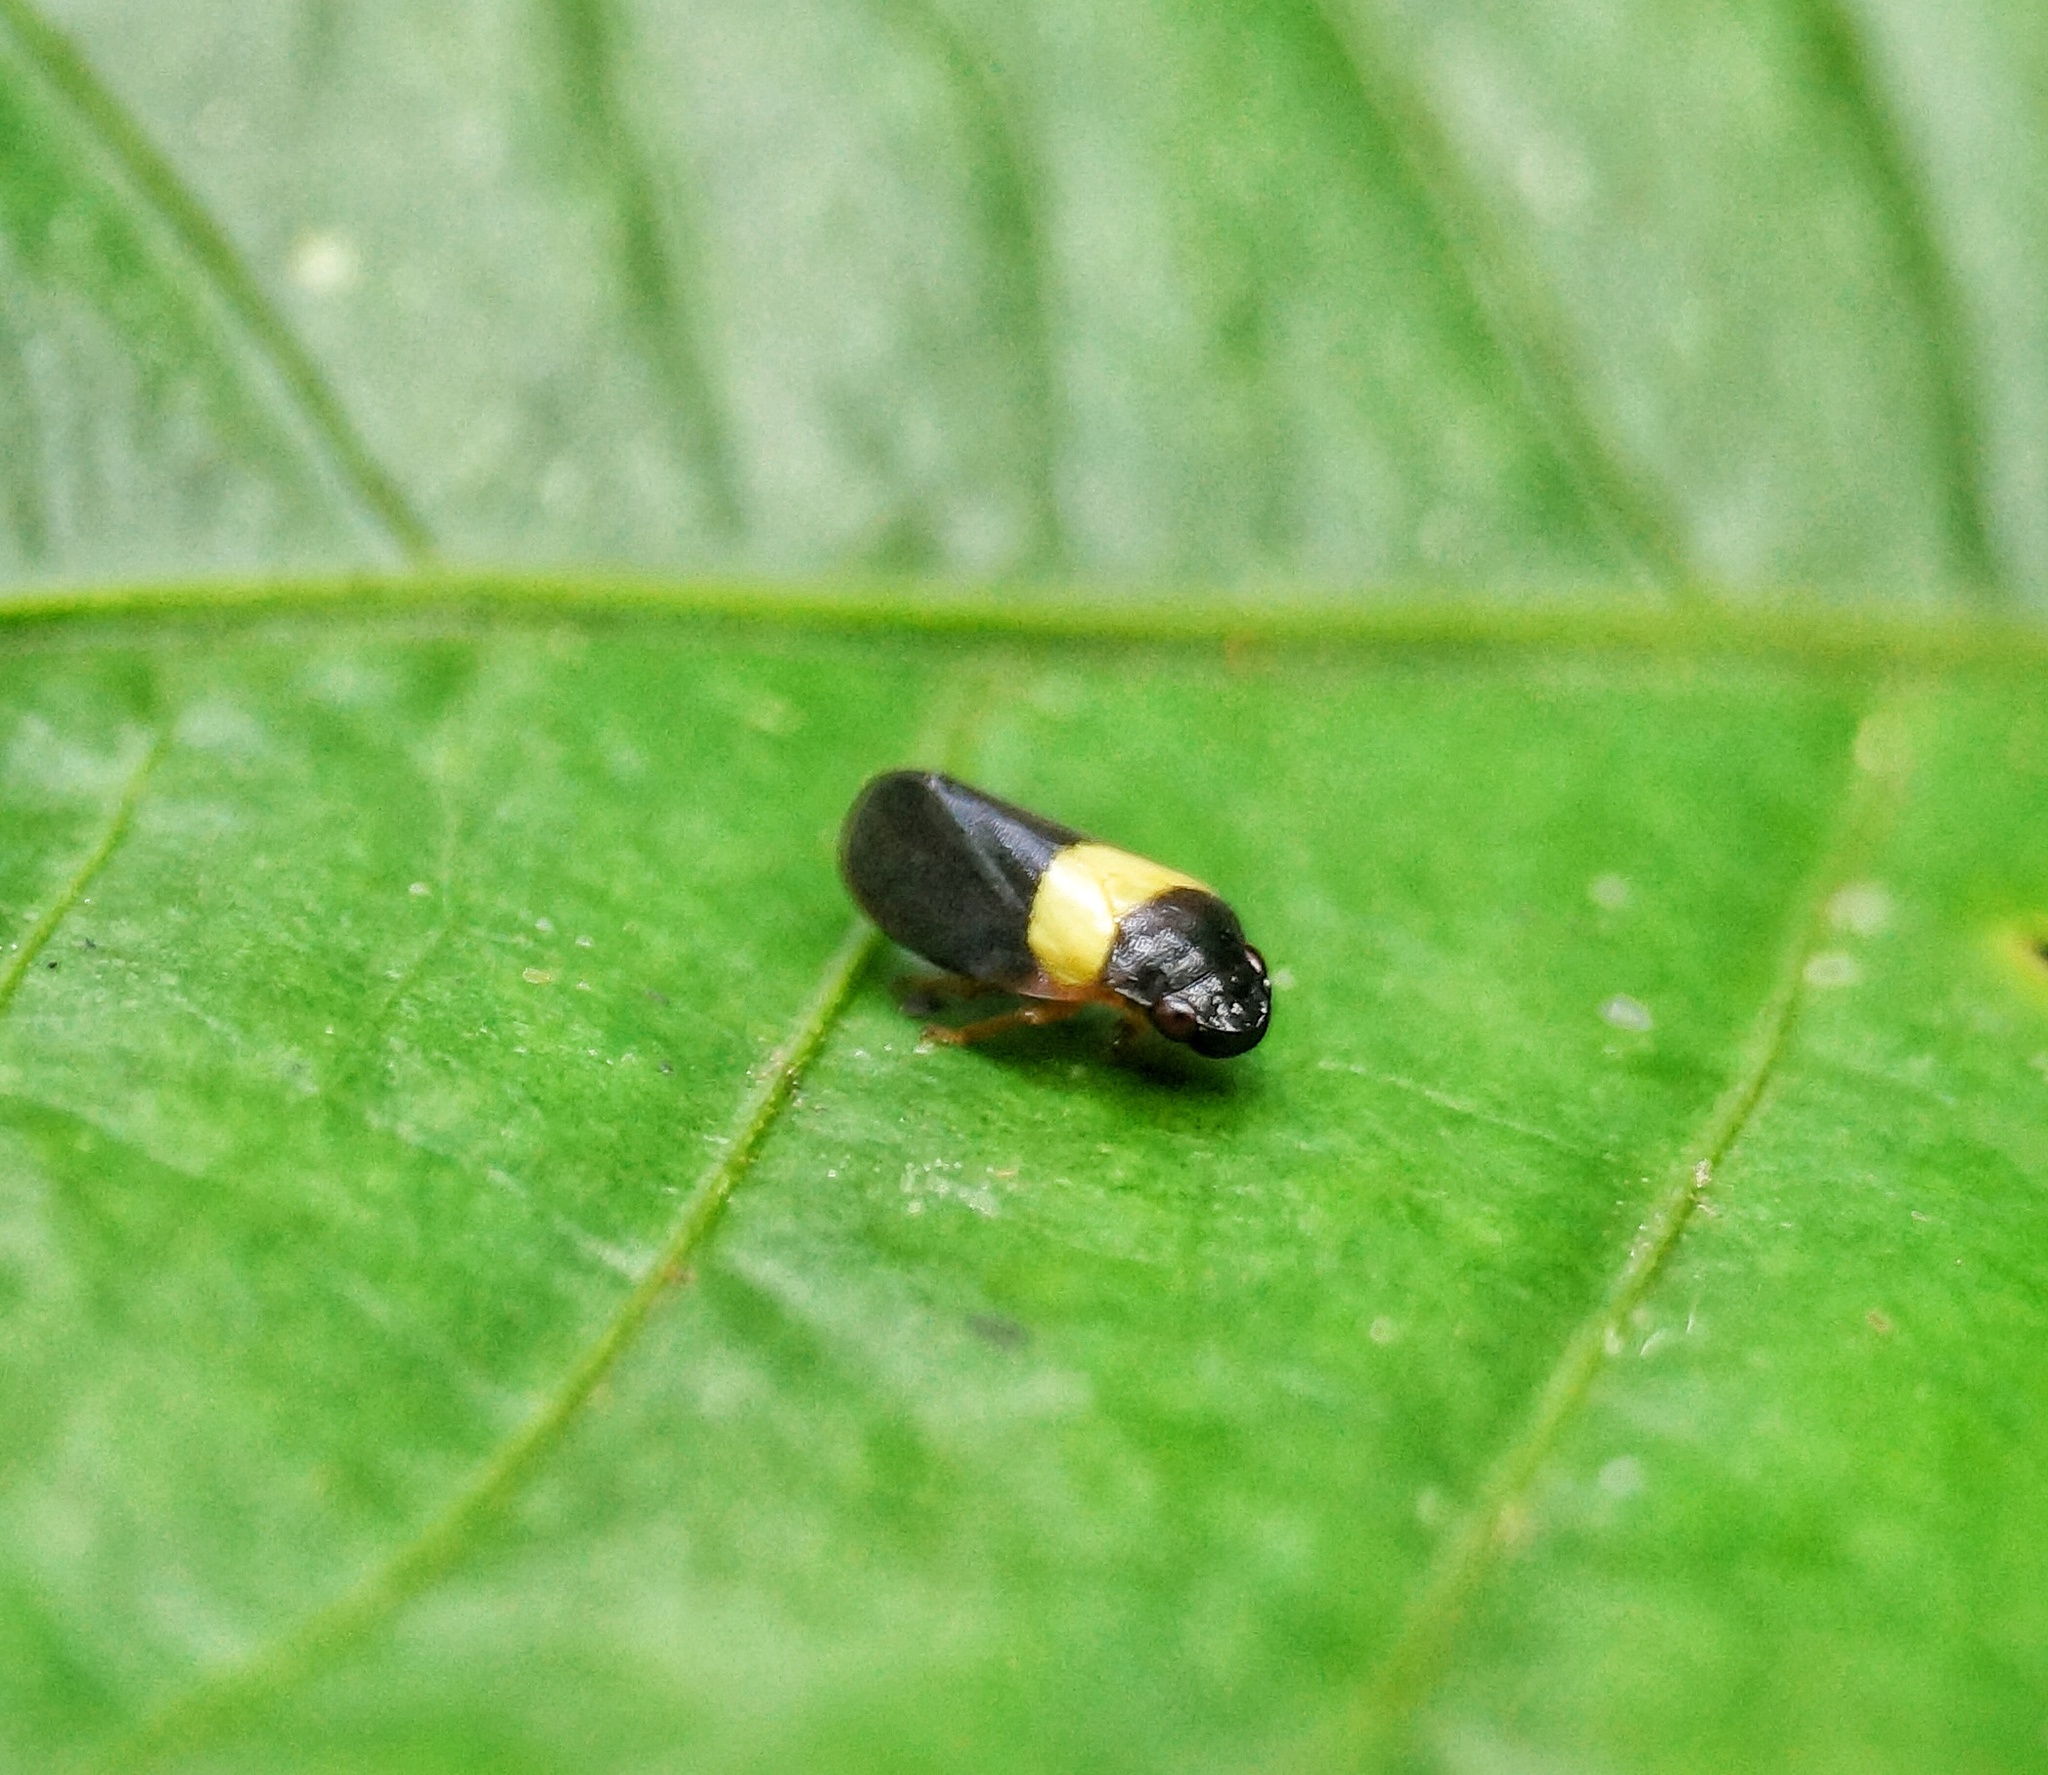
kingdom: Animalia
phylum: Arthropoda
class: Insecta
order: Hemiptera
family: Cercopidae
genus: Zuata
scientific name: Zuata transita
